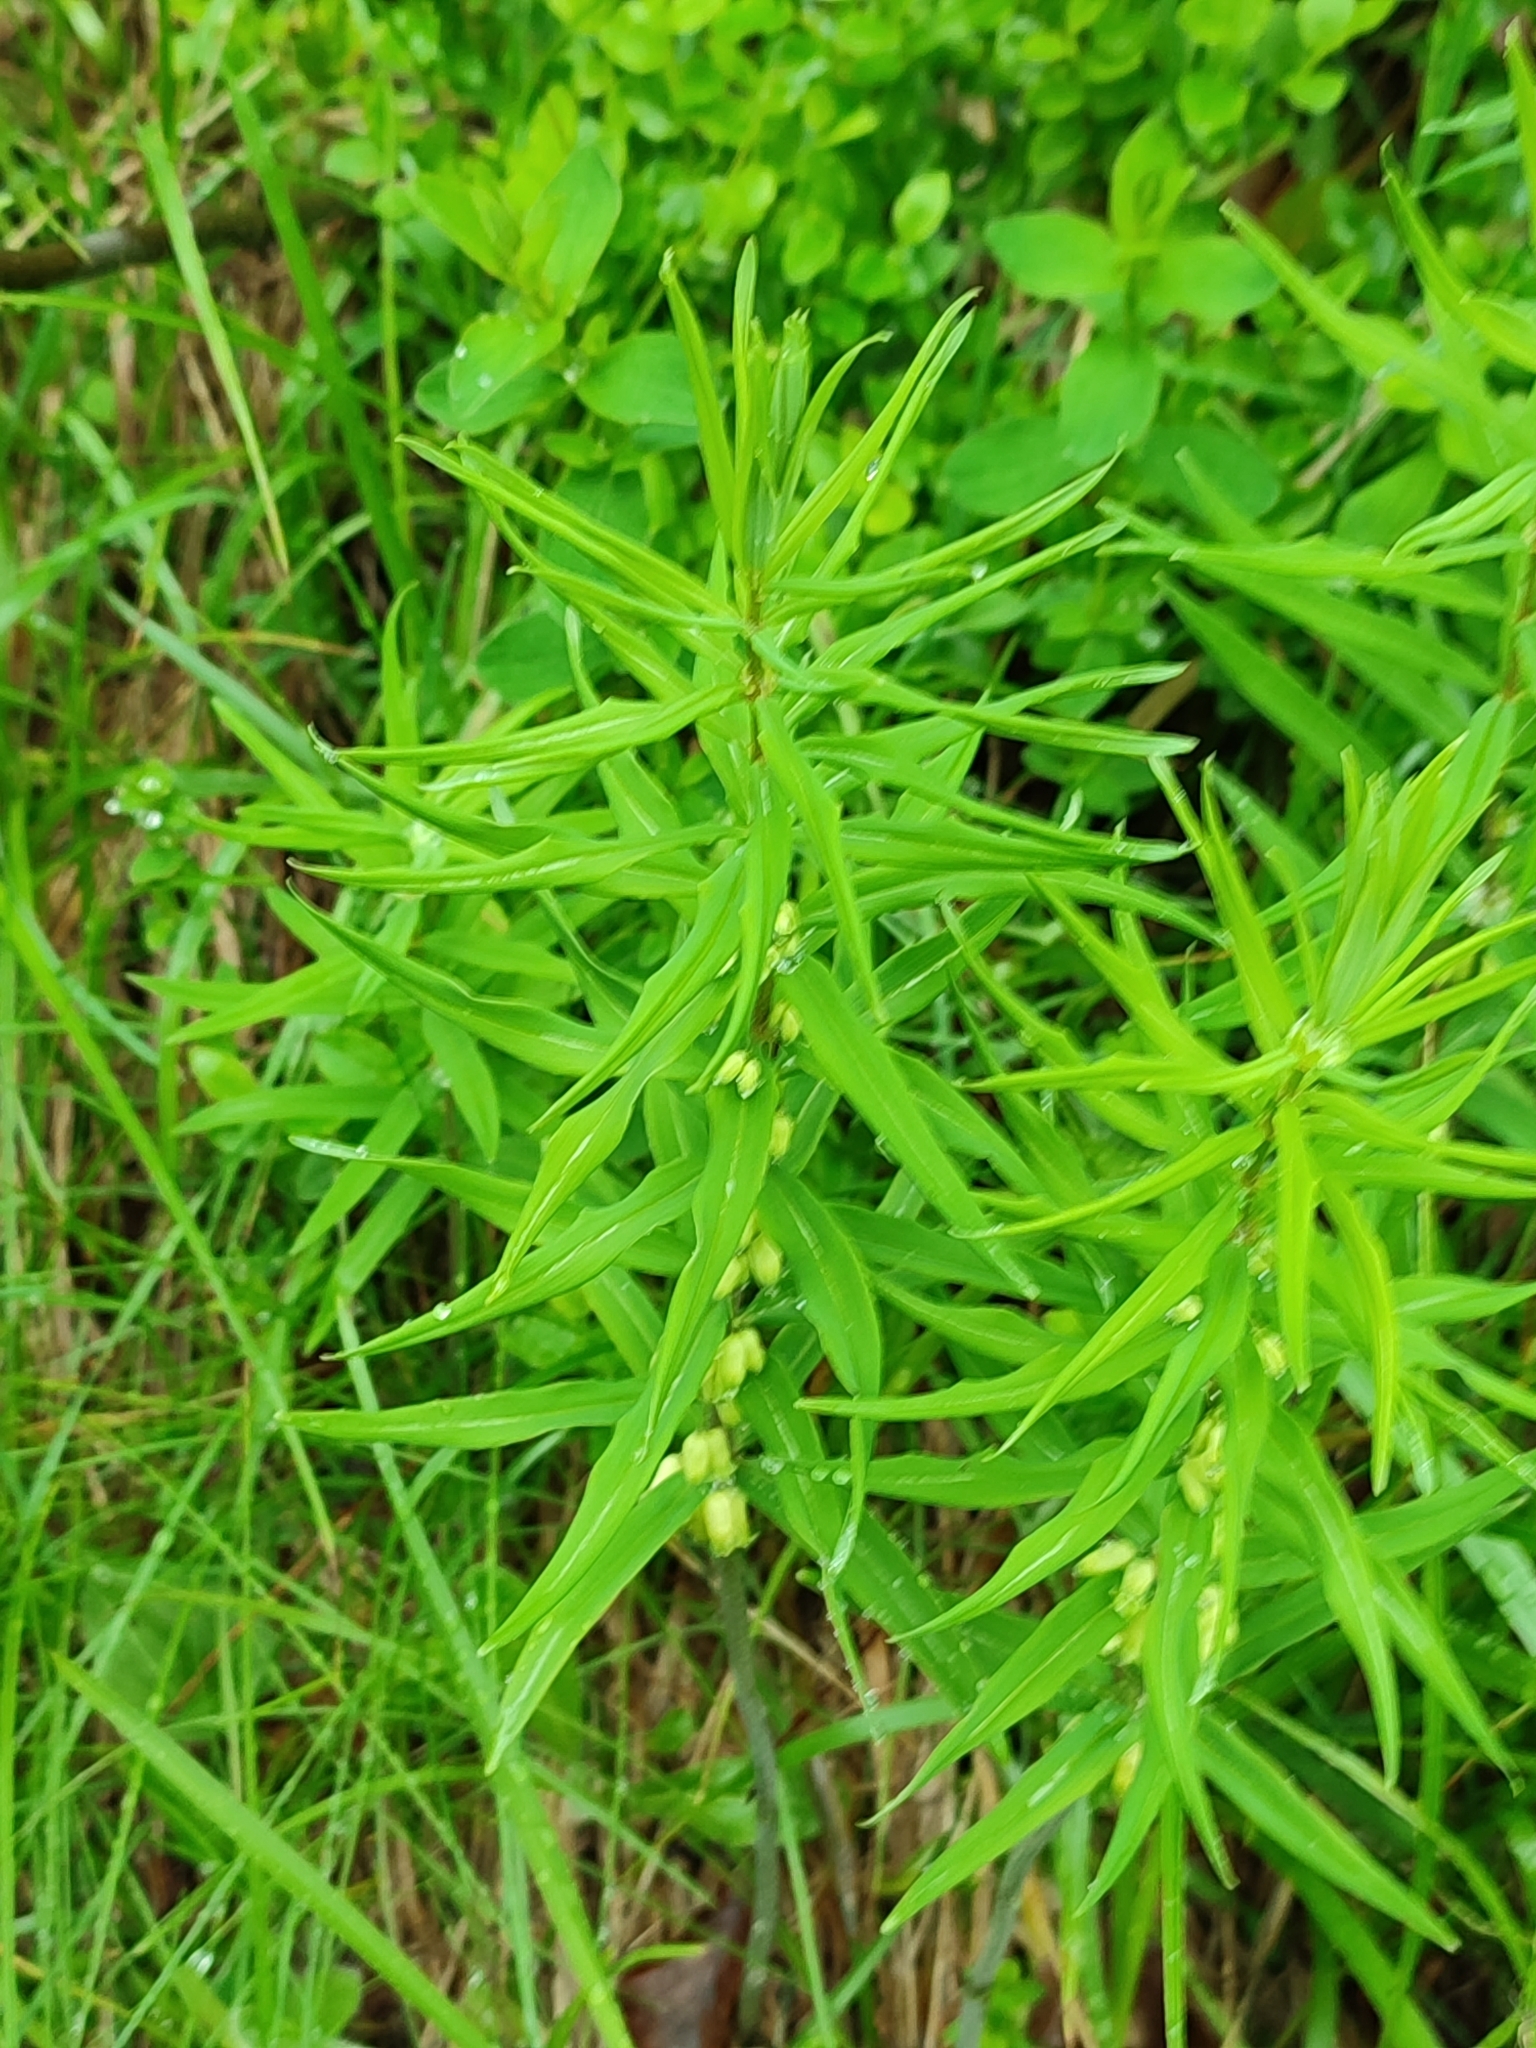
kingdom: Plantae
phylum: Tracheophyta
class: Liliopsida
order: Asparagales
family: Asparagaceae
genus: Polygonatum
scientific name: Polygonatum verticillatum
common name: Whorled solomon's-seal
